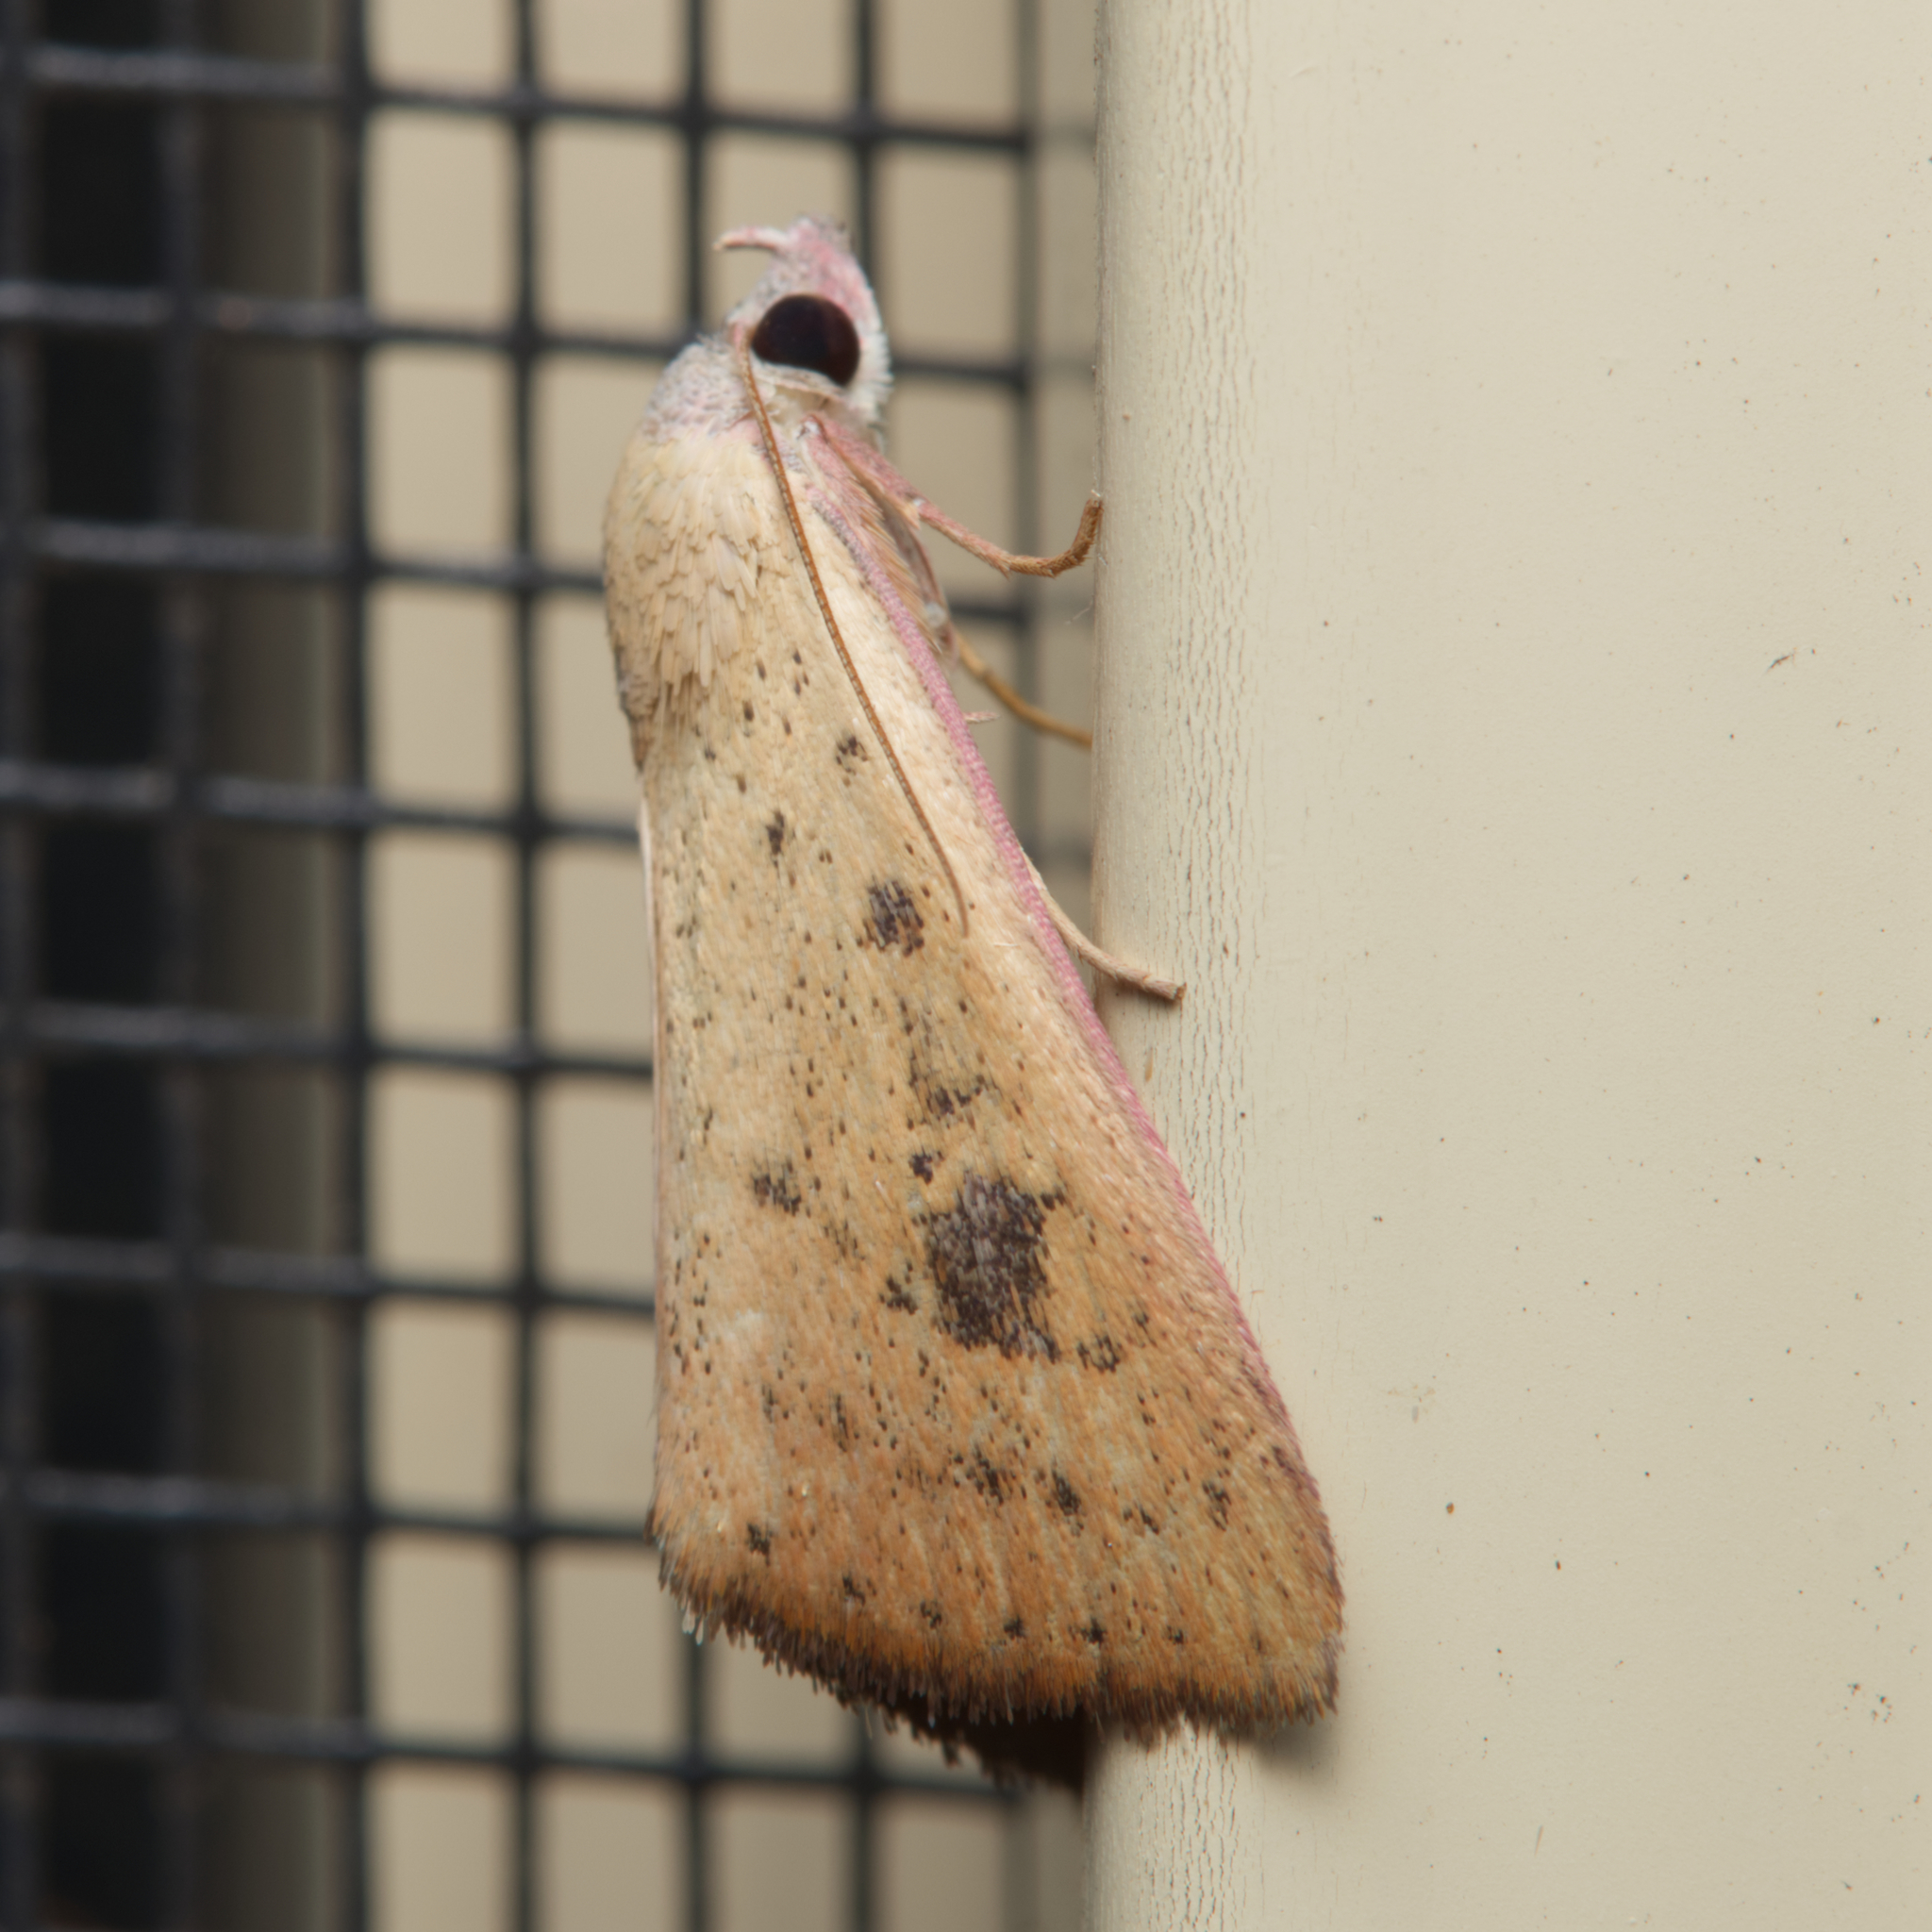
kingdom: Animalia
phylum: Arthropoda
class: Insecta
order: Lepidoptera
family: Erebidae
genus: Phytometra
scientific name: Phytometra laevis
